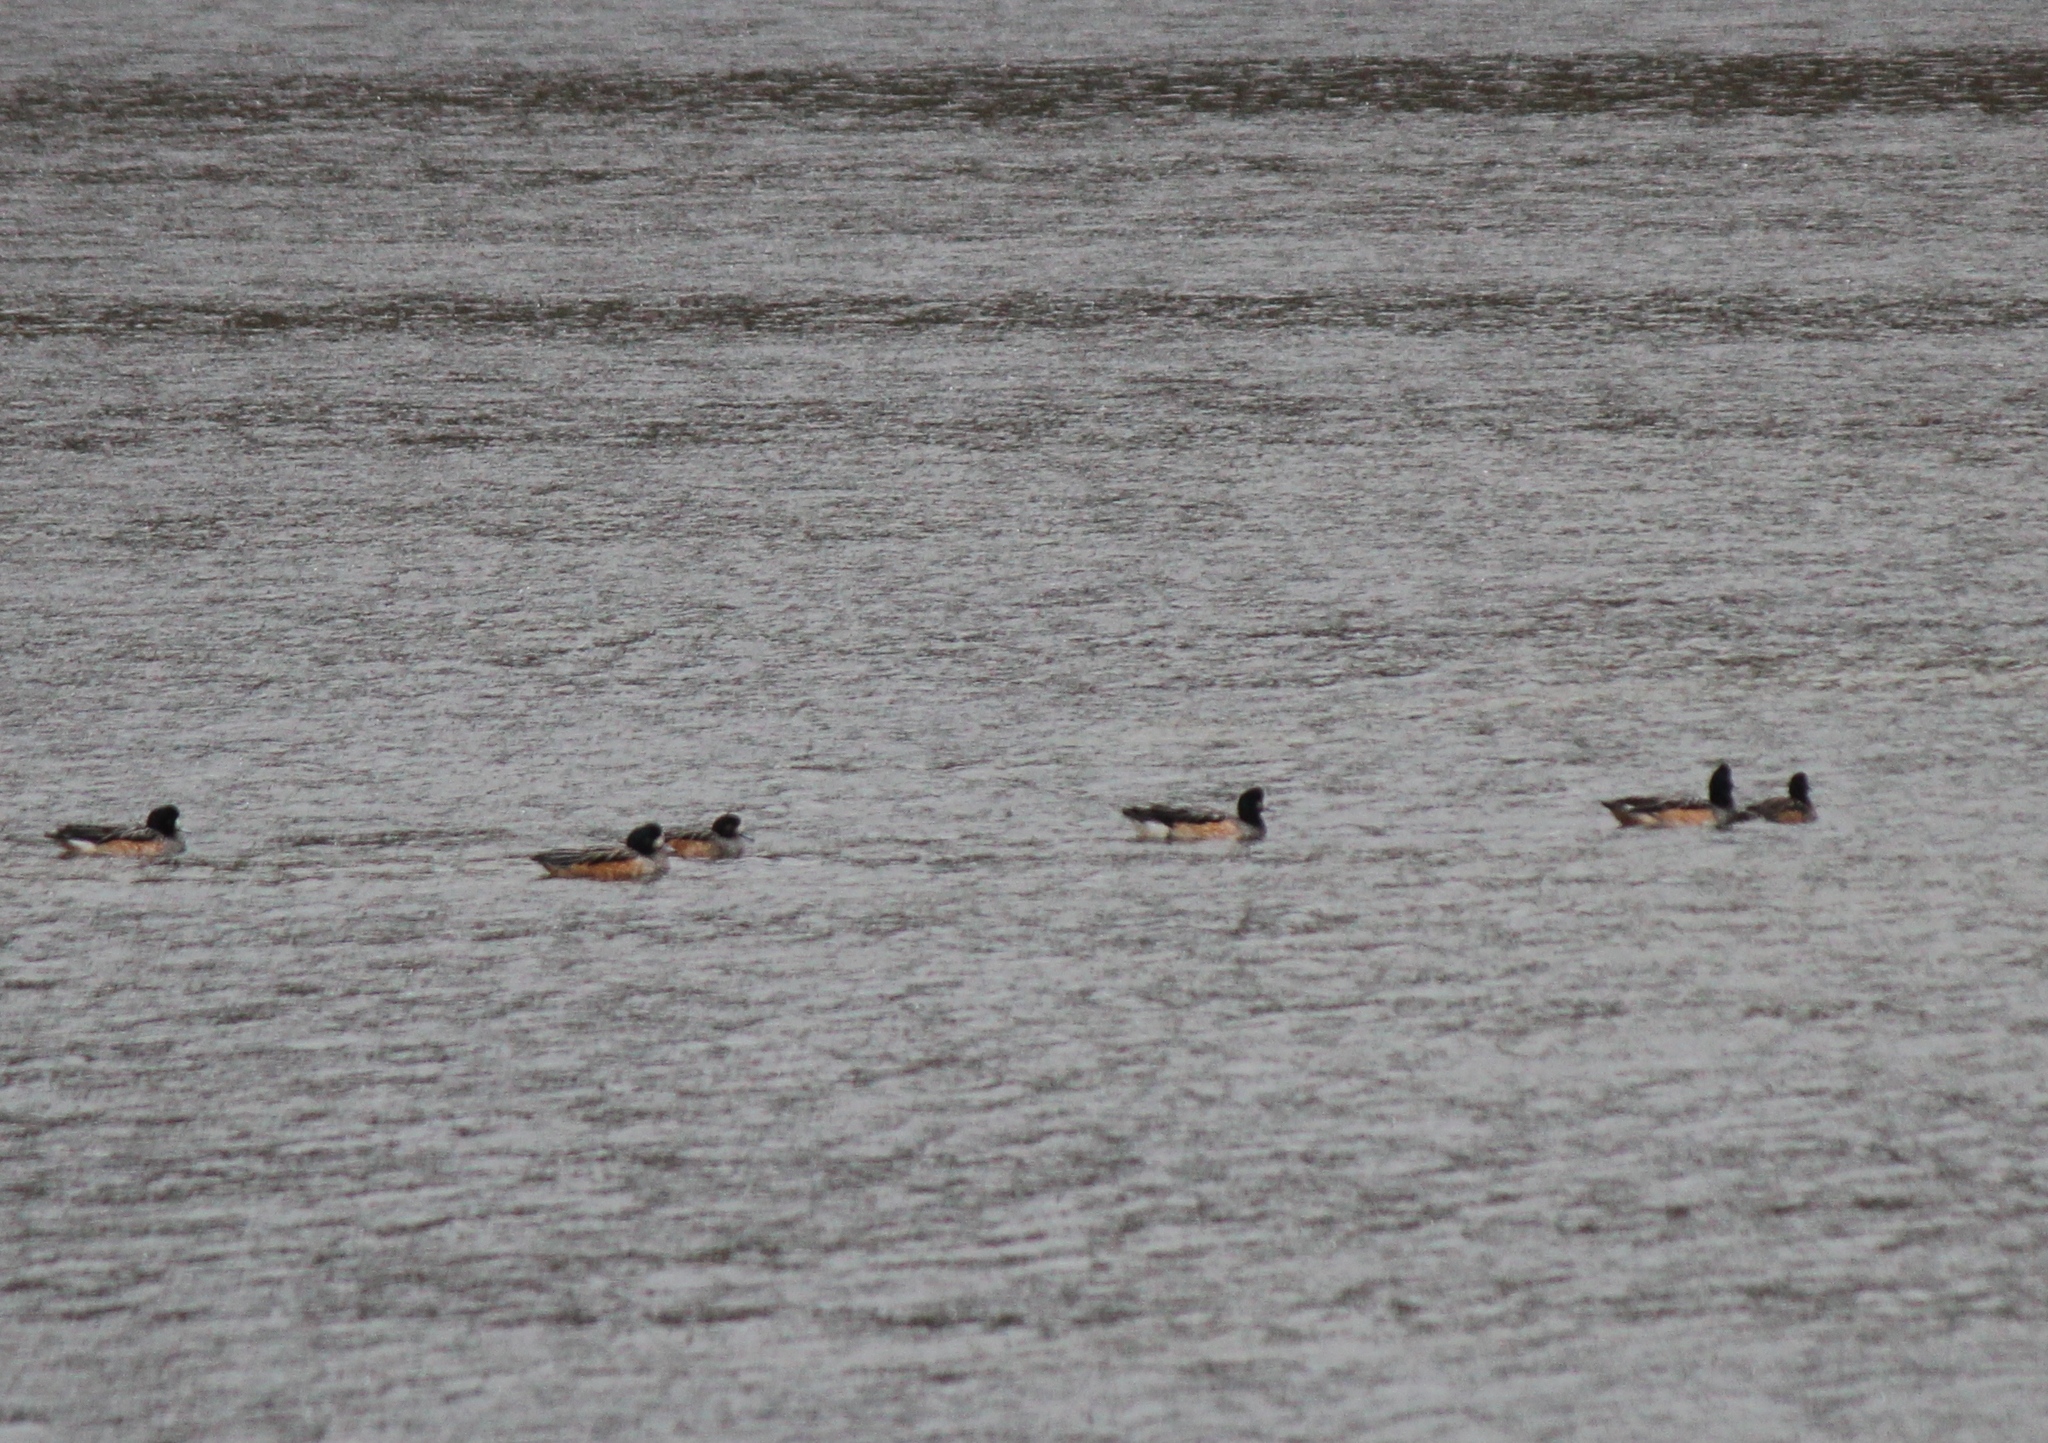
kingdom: Animalia
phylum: Chordata
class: Aves
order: Anseriformes
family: Anatidae
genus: Mareca
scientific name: Mareca sibilatrix
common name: Chiloe wigeon
